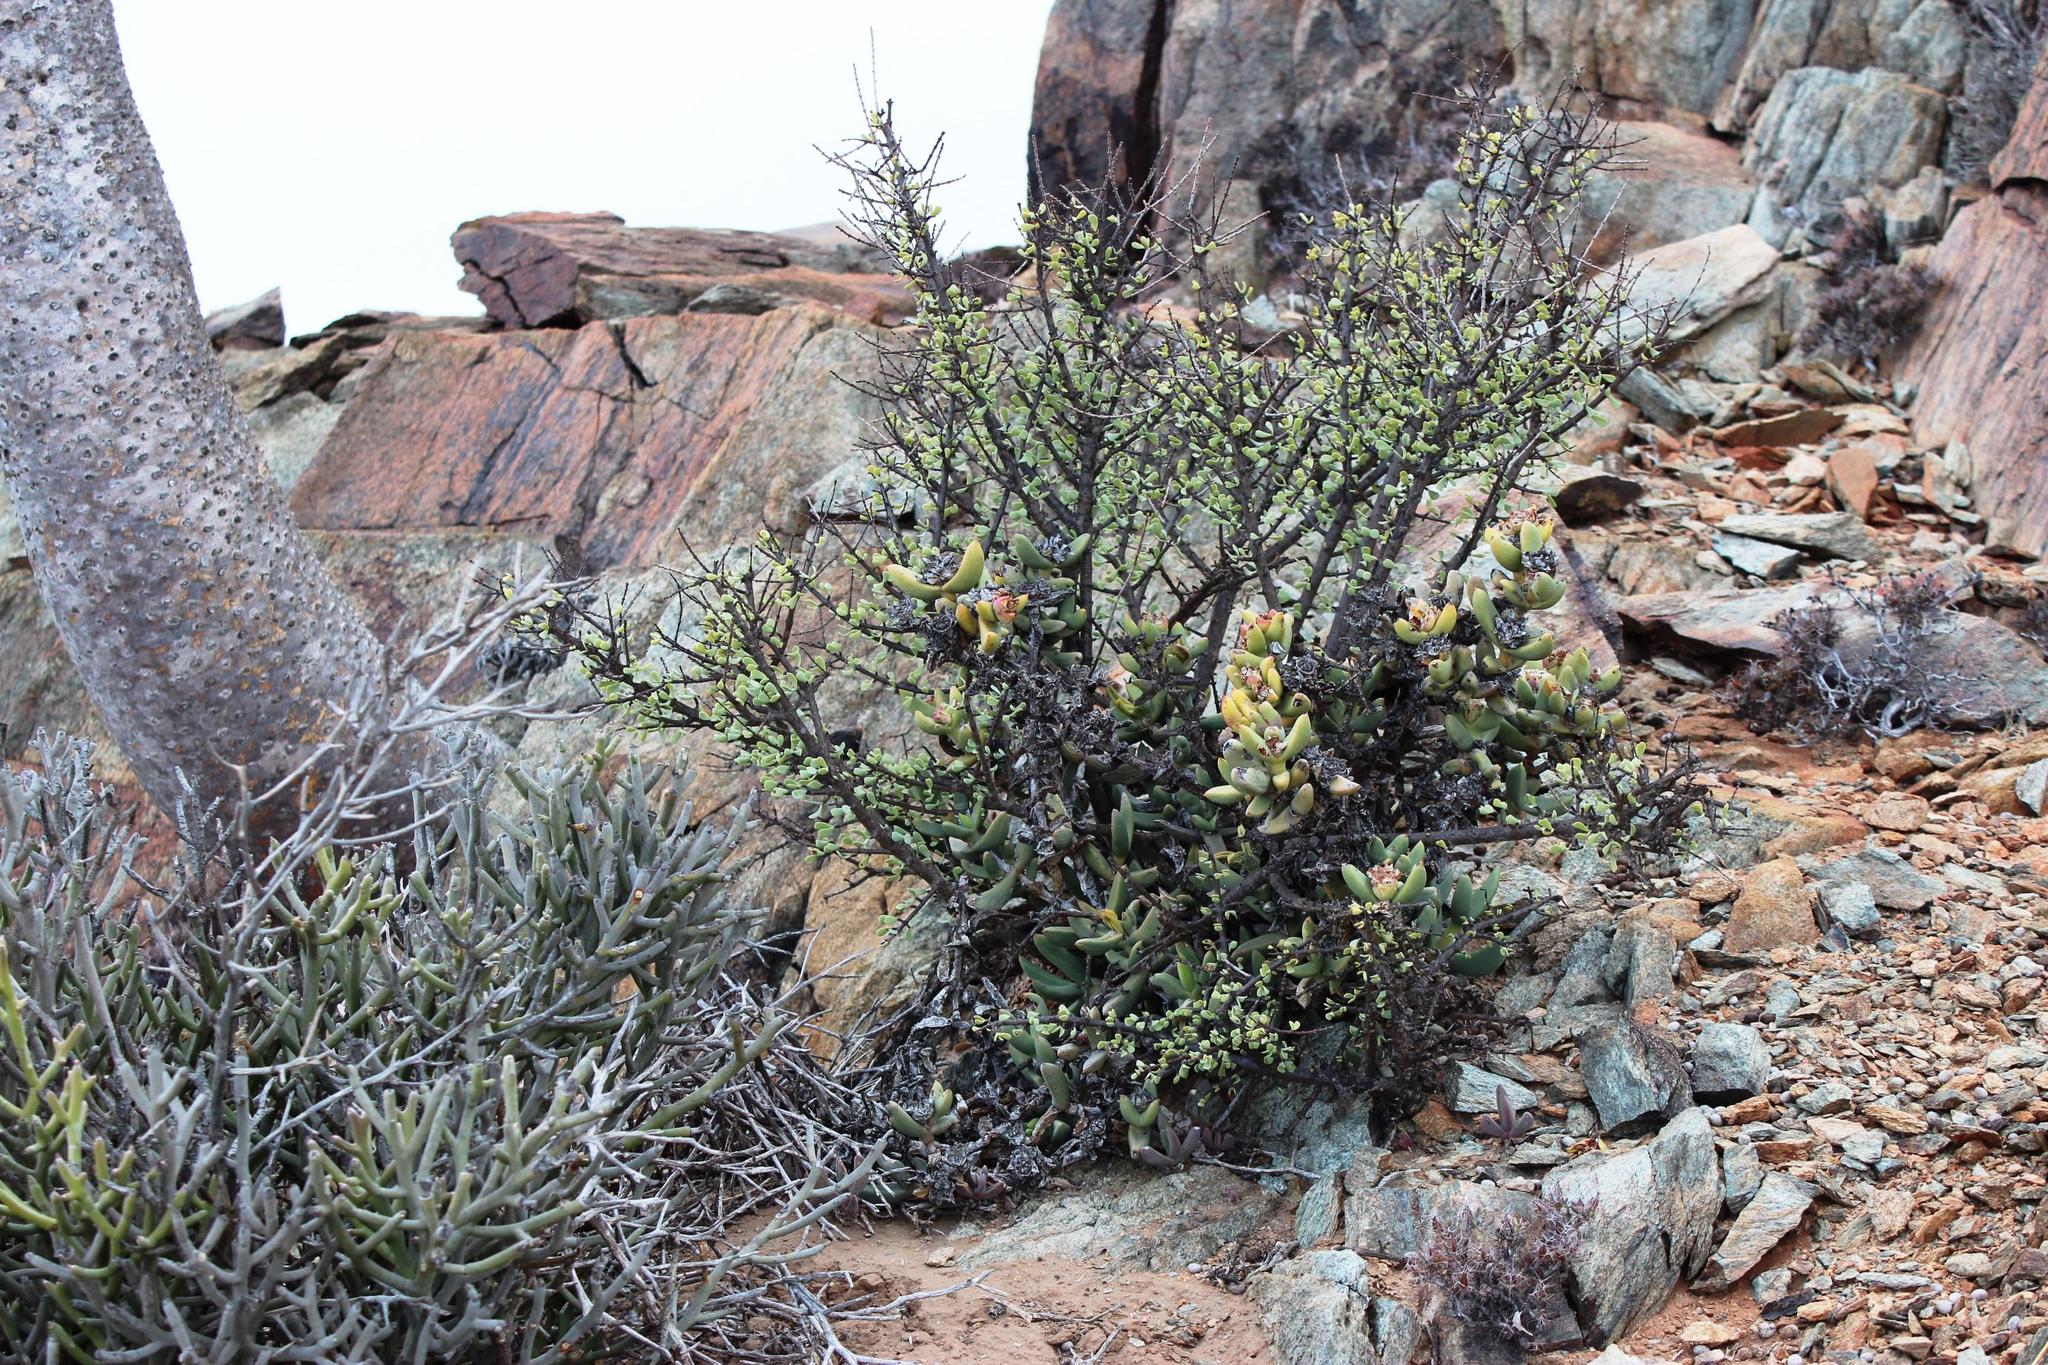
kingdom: Plantae
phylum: Tracheophyta
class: Magnoliopsida
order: Caryophyllales
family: Aizoaceae
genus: Astridia
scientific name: Astridia lutata
